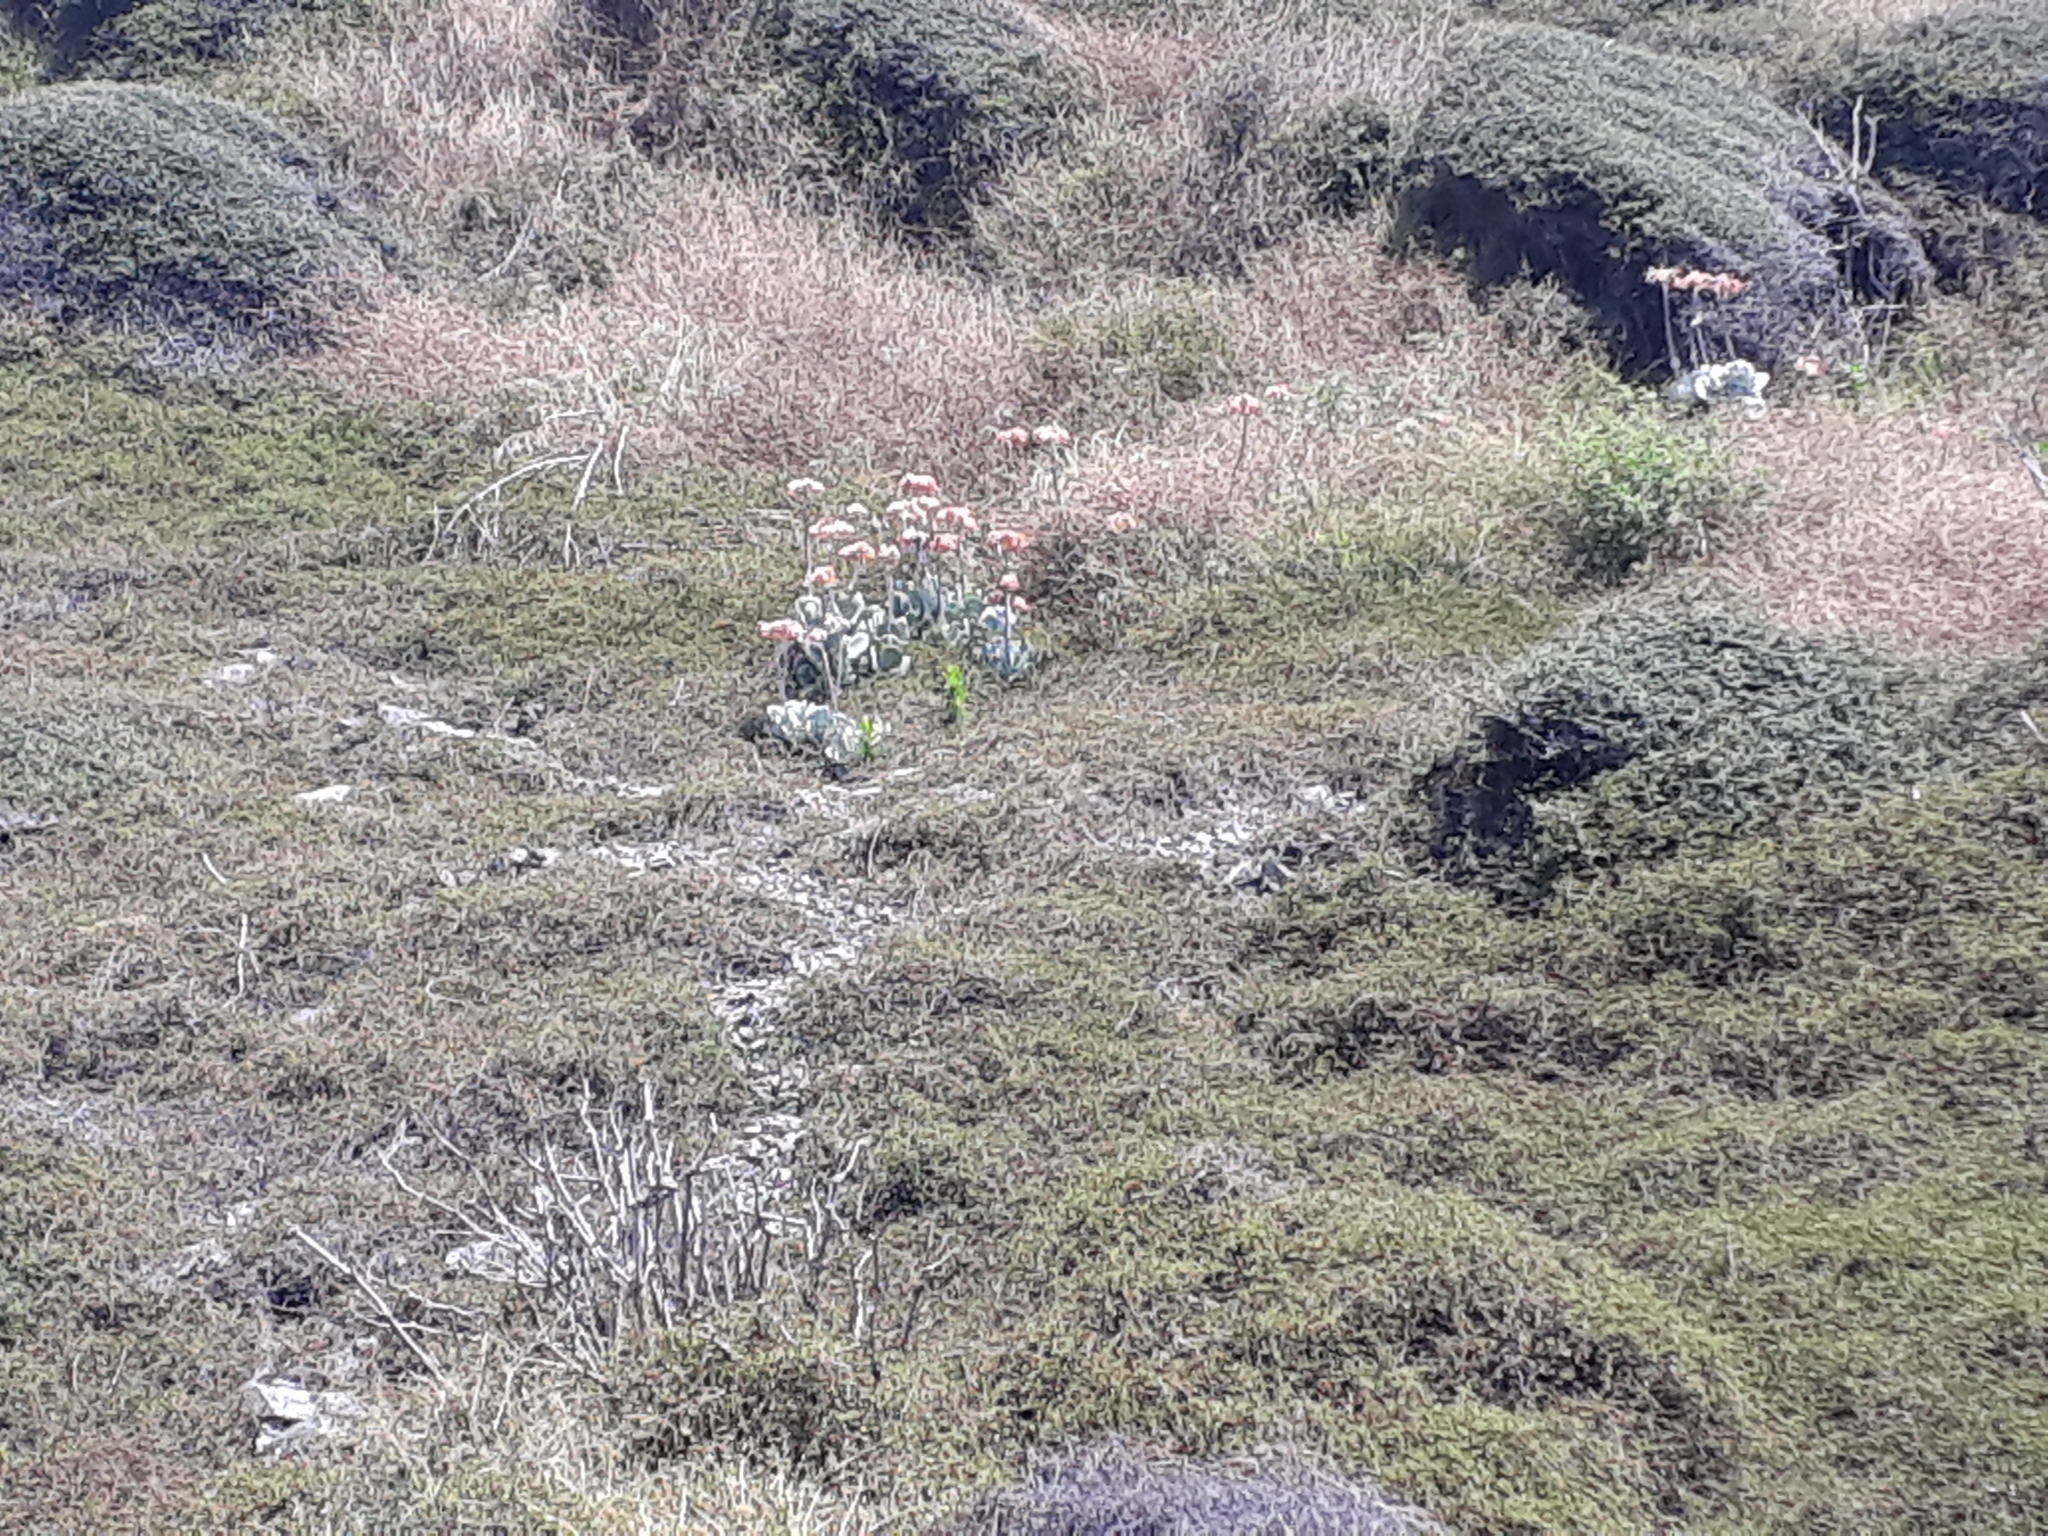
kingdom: Plantae
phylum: Tracheophyta
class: Magnoliopsida
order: Saxifragales
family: Crassulaceae
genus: Cotyledon
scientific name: Cotyledon orbiculata
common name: Pig's ear
